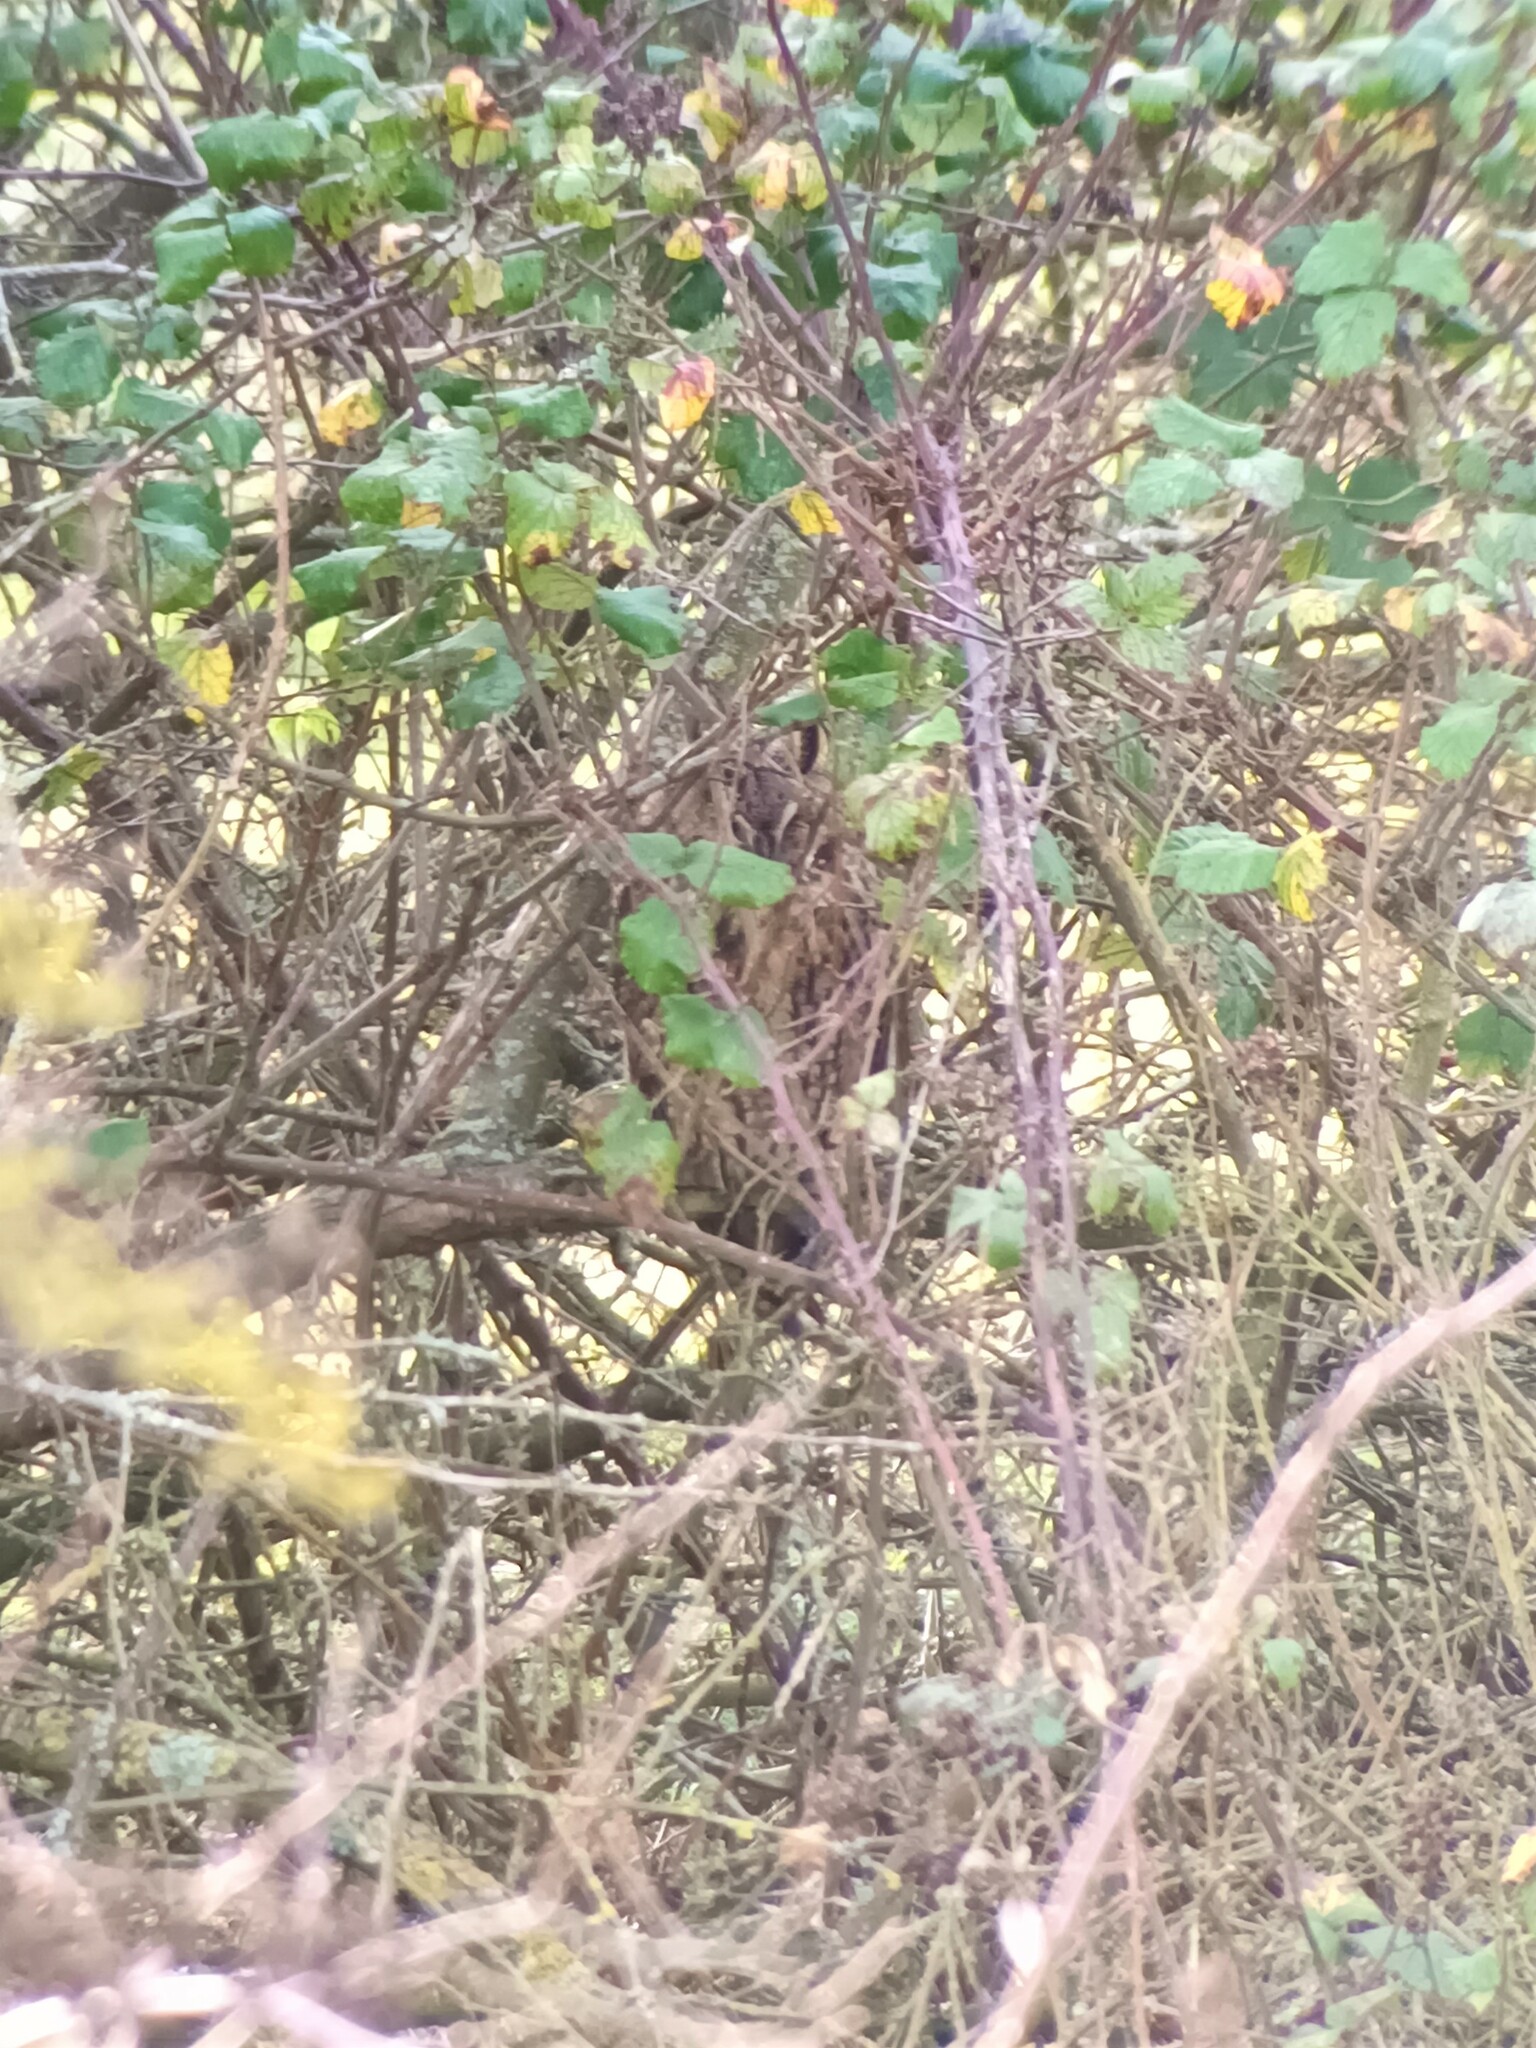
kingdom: Animalia
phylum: Chordata
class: Aves
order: Strigiformes
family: Strigidae
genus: Asio
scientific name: Asio otus
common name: Long-eared owl
